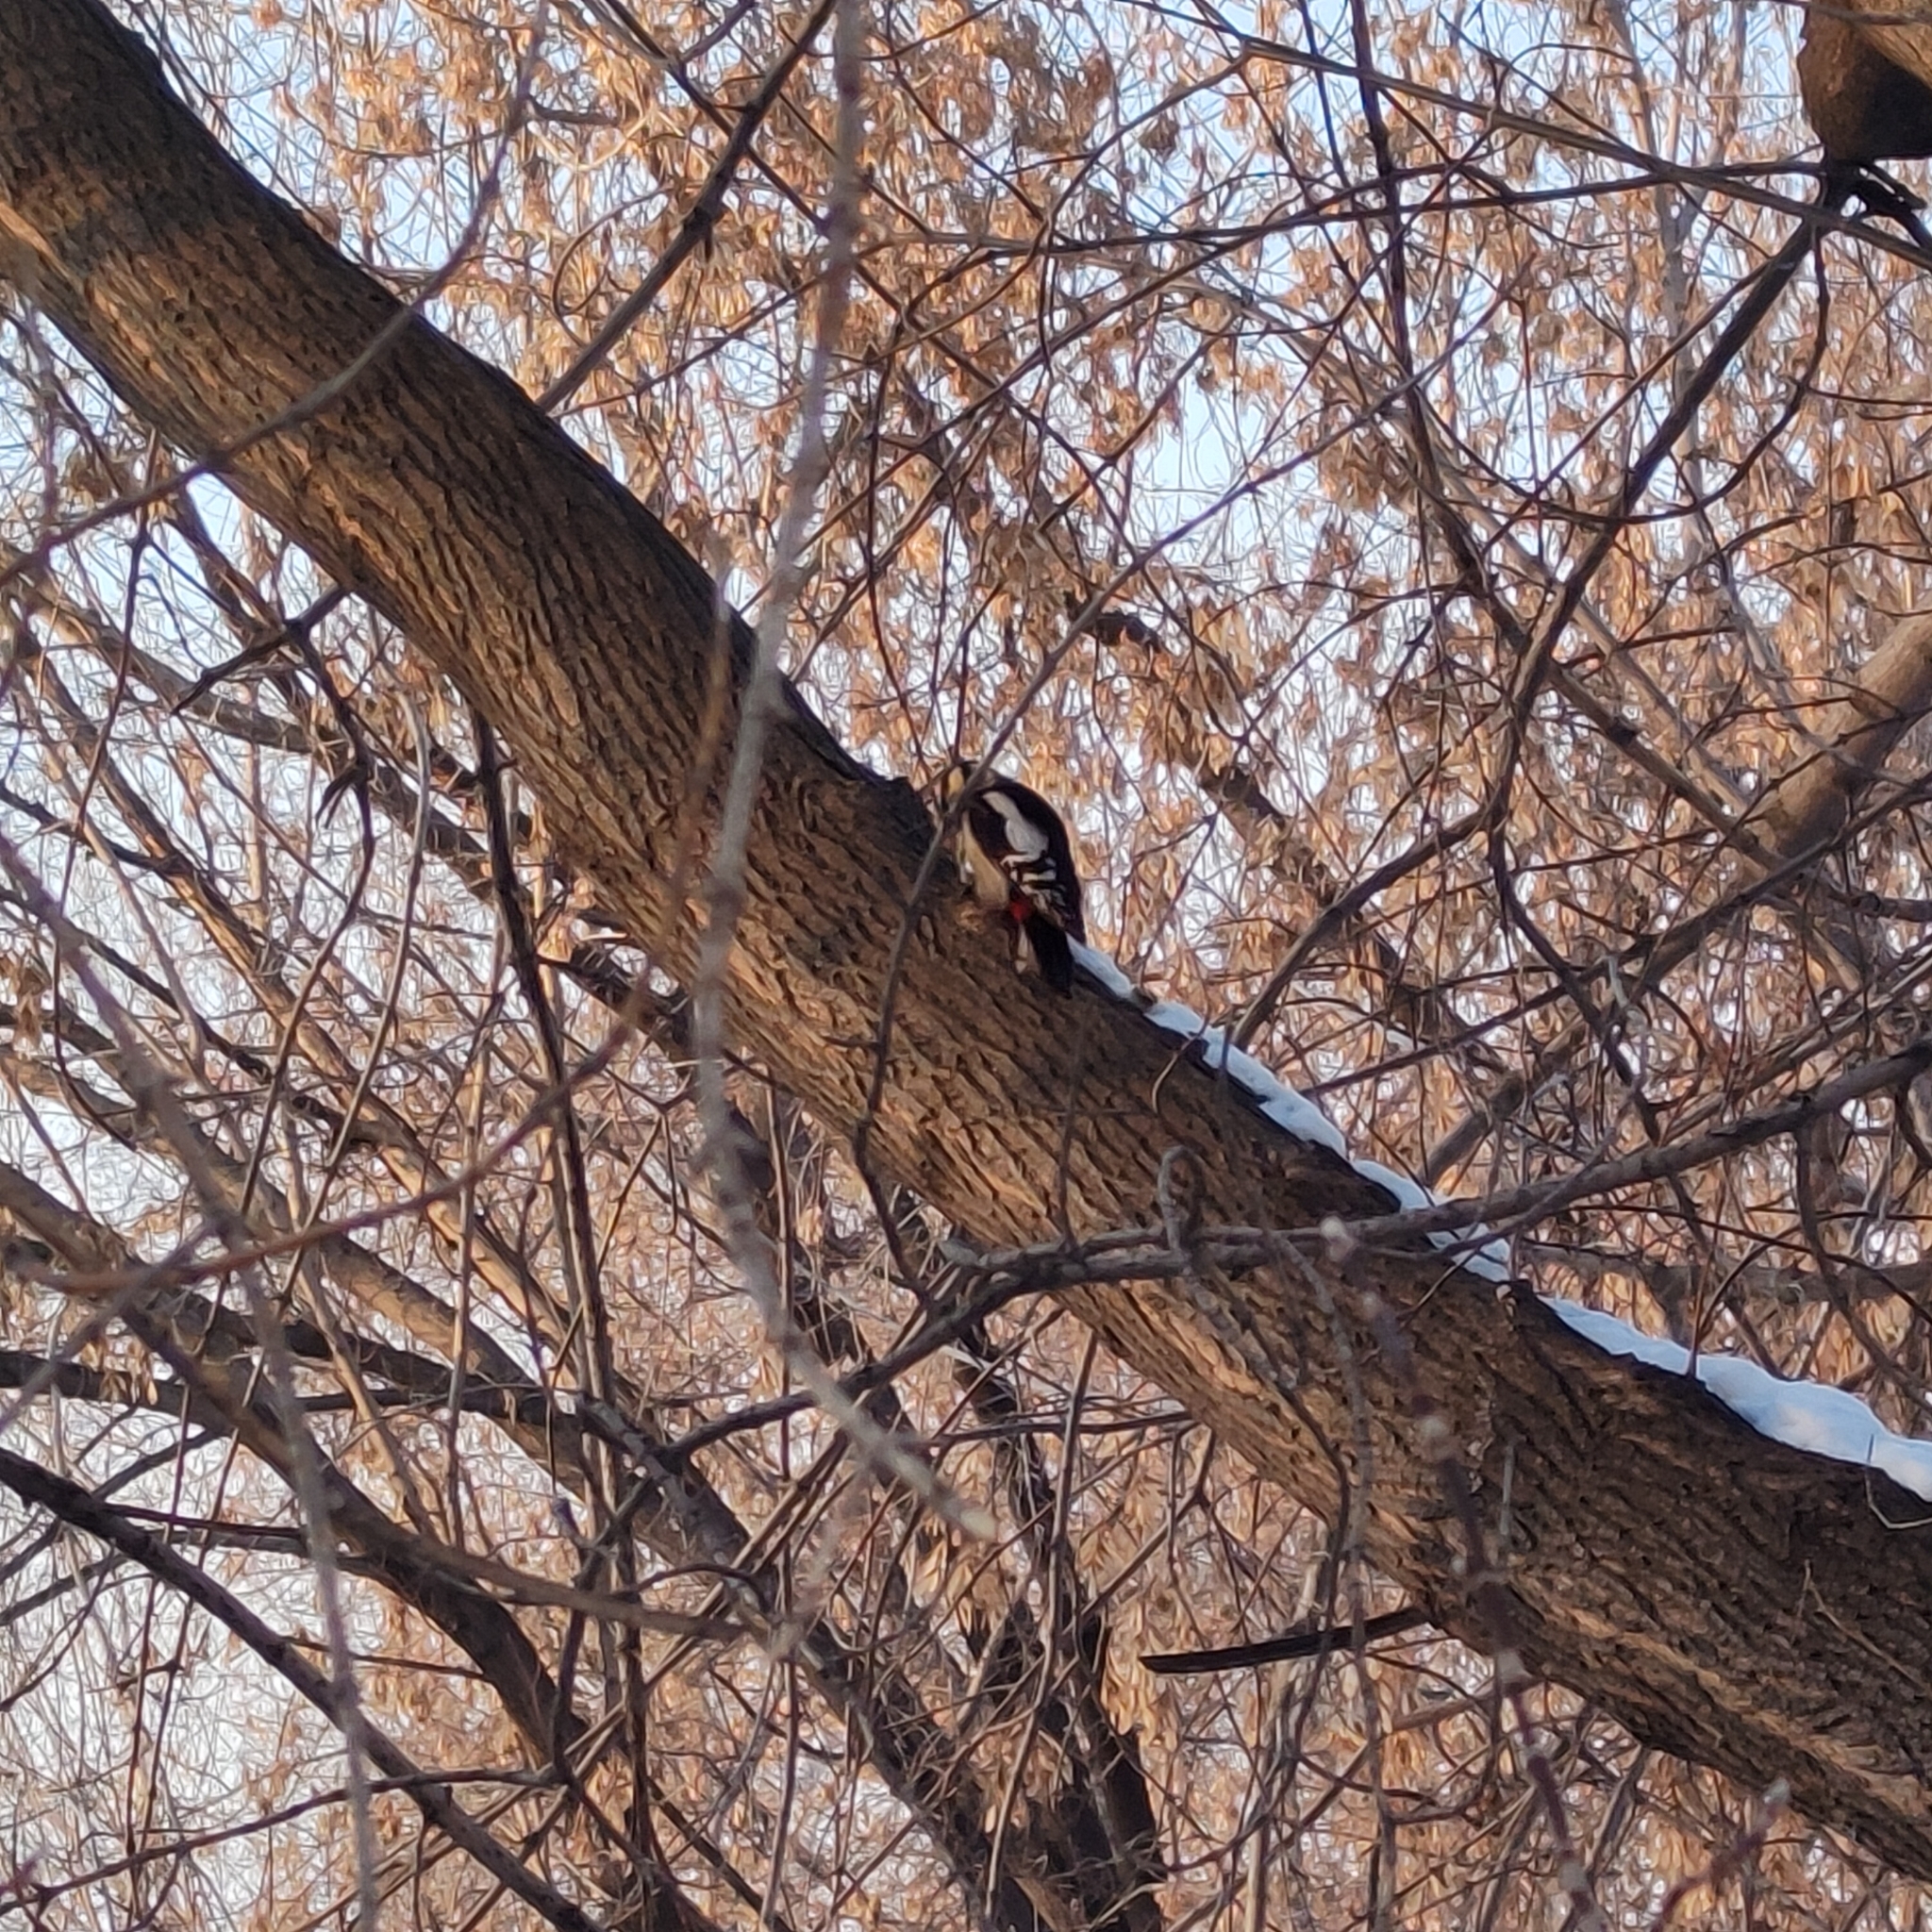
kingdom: Animalia
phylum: Chordata
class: Aves
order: Piciformes
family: Picidae
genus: Dendrocopos
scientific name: Dendrocopos major
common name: Great spotted woodpecker
